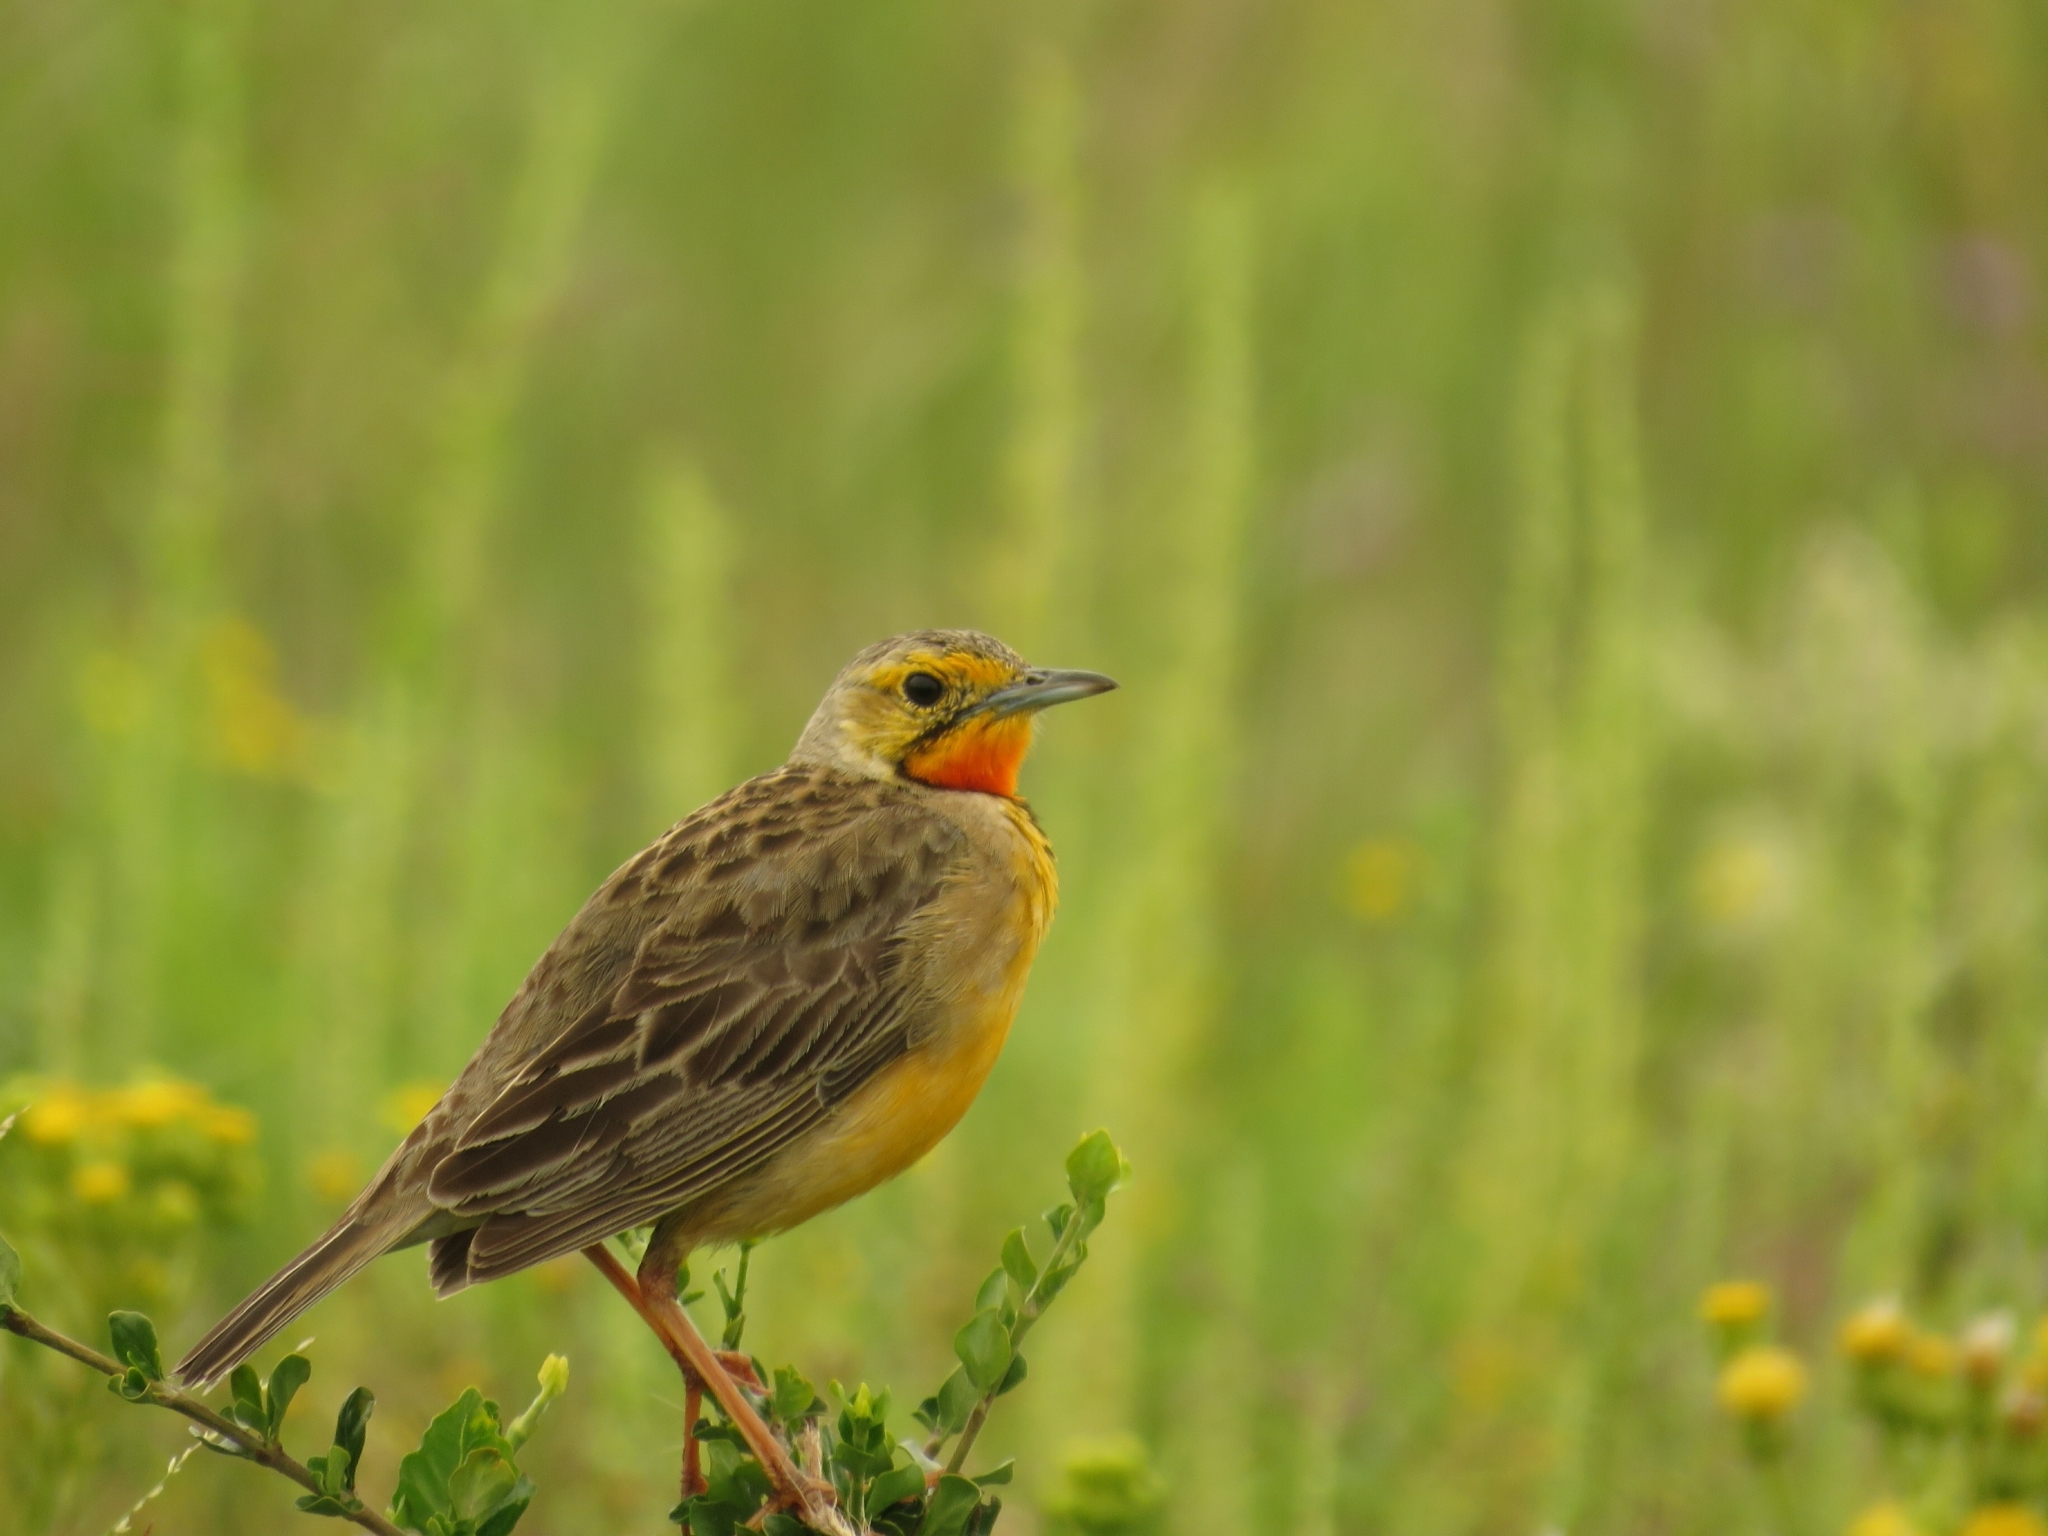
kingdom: Animalia
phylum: Chordata
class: Aves
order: Passeriformes
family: Motacillidae
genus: Macronyx
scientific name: Macronyx capensis
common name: Cape longclaw
